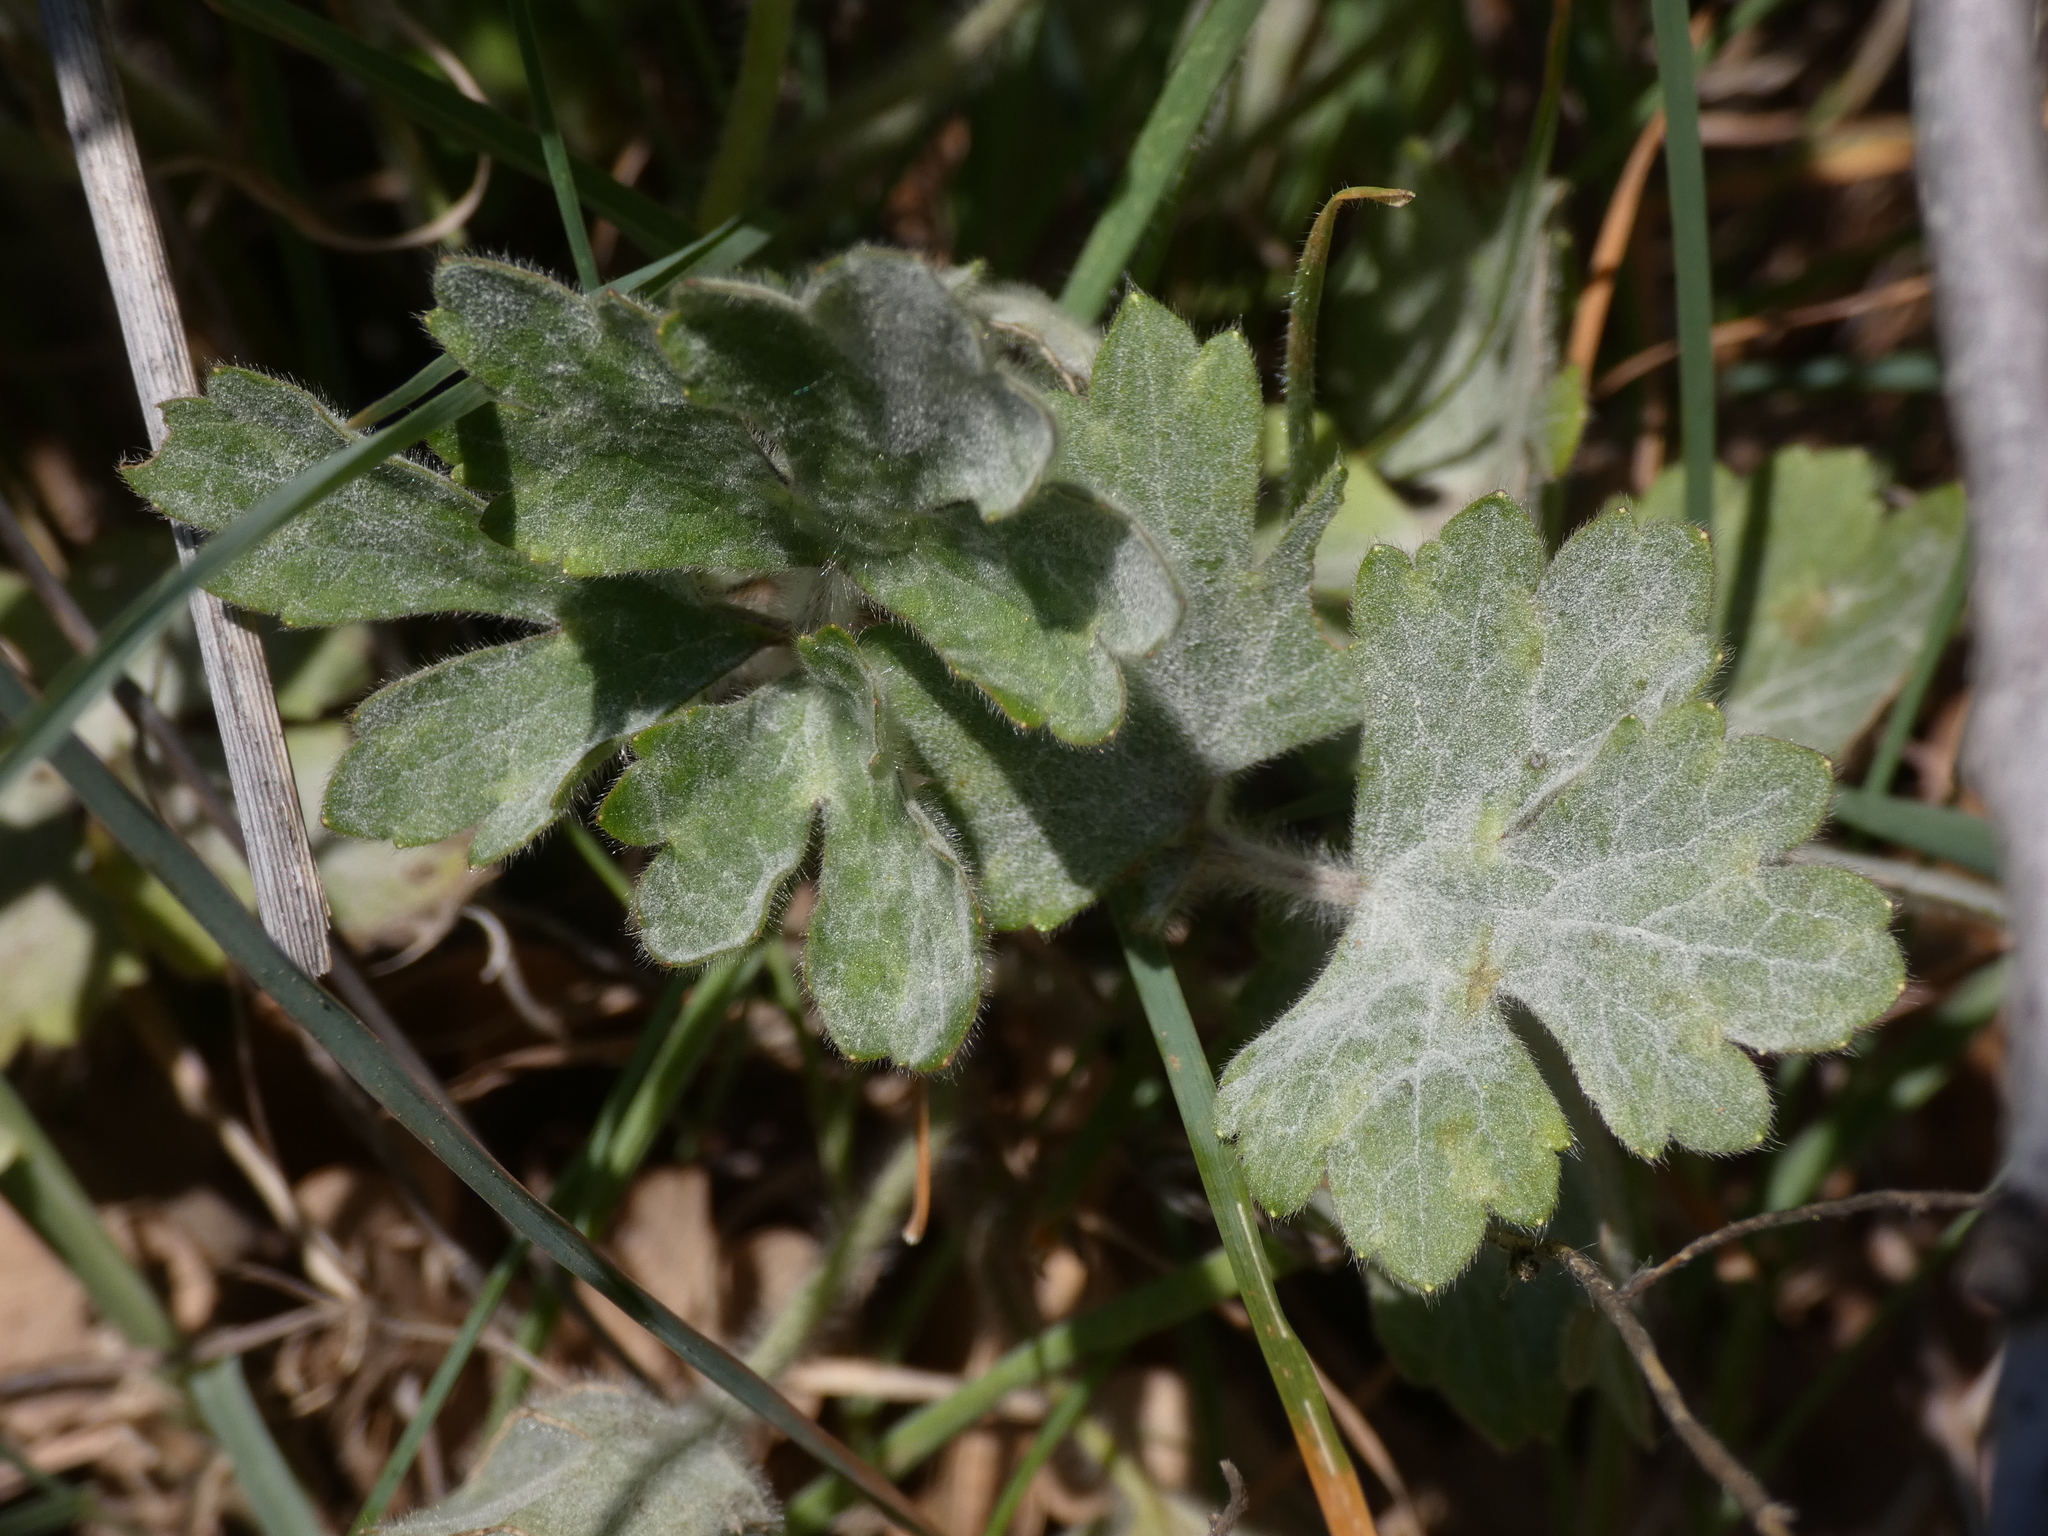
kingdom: Plantae
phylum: Tracheophyta
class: Magnoliopsida
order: Ranunculales
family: Ranunculaceae
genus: Ranunculus
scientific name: Ranunculus bulbosus
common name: Bulbous buttercup
